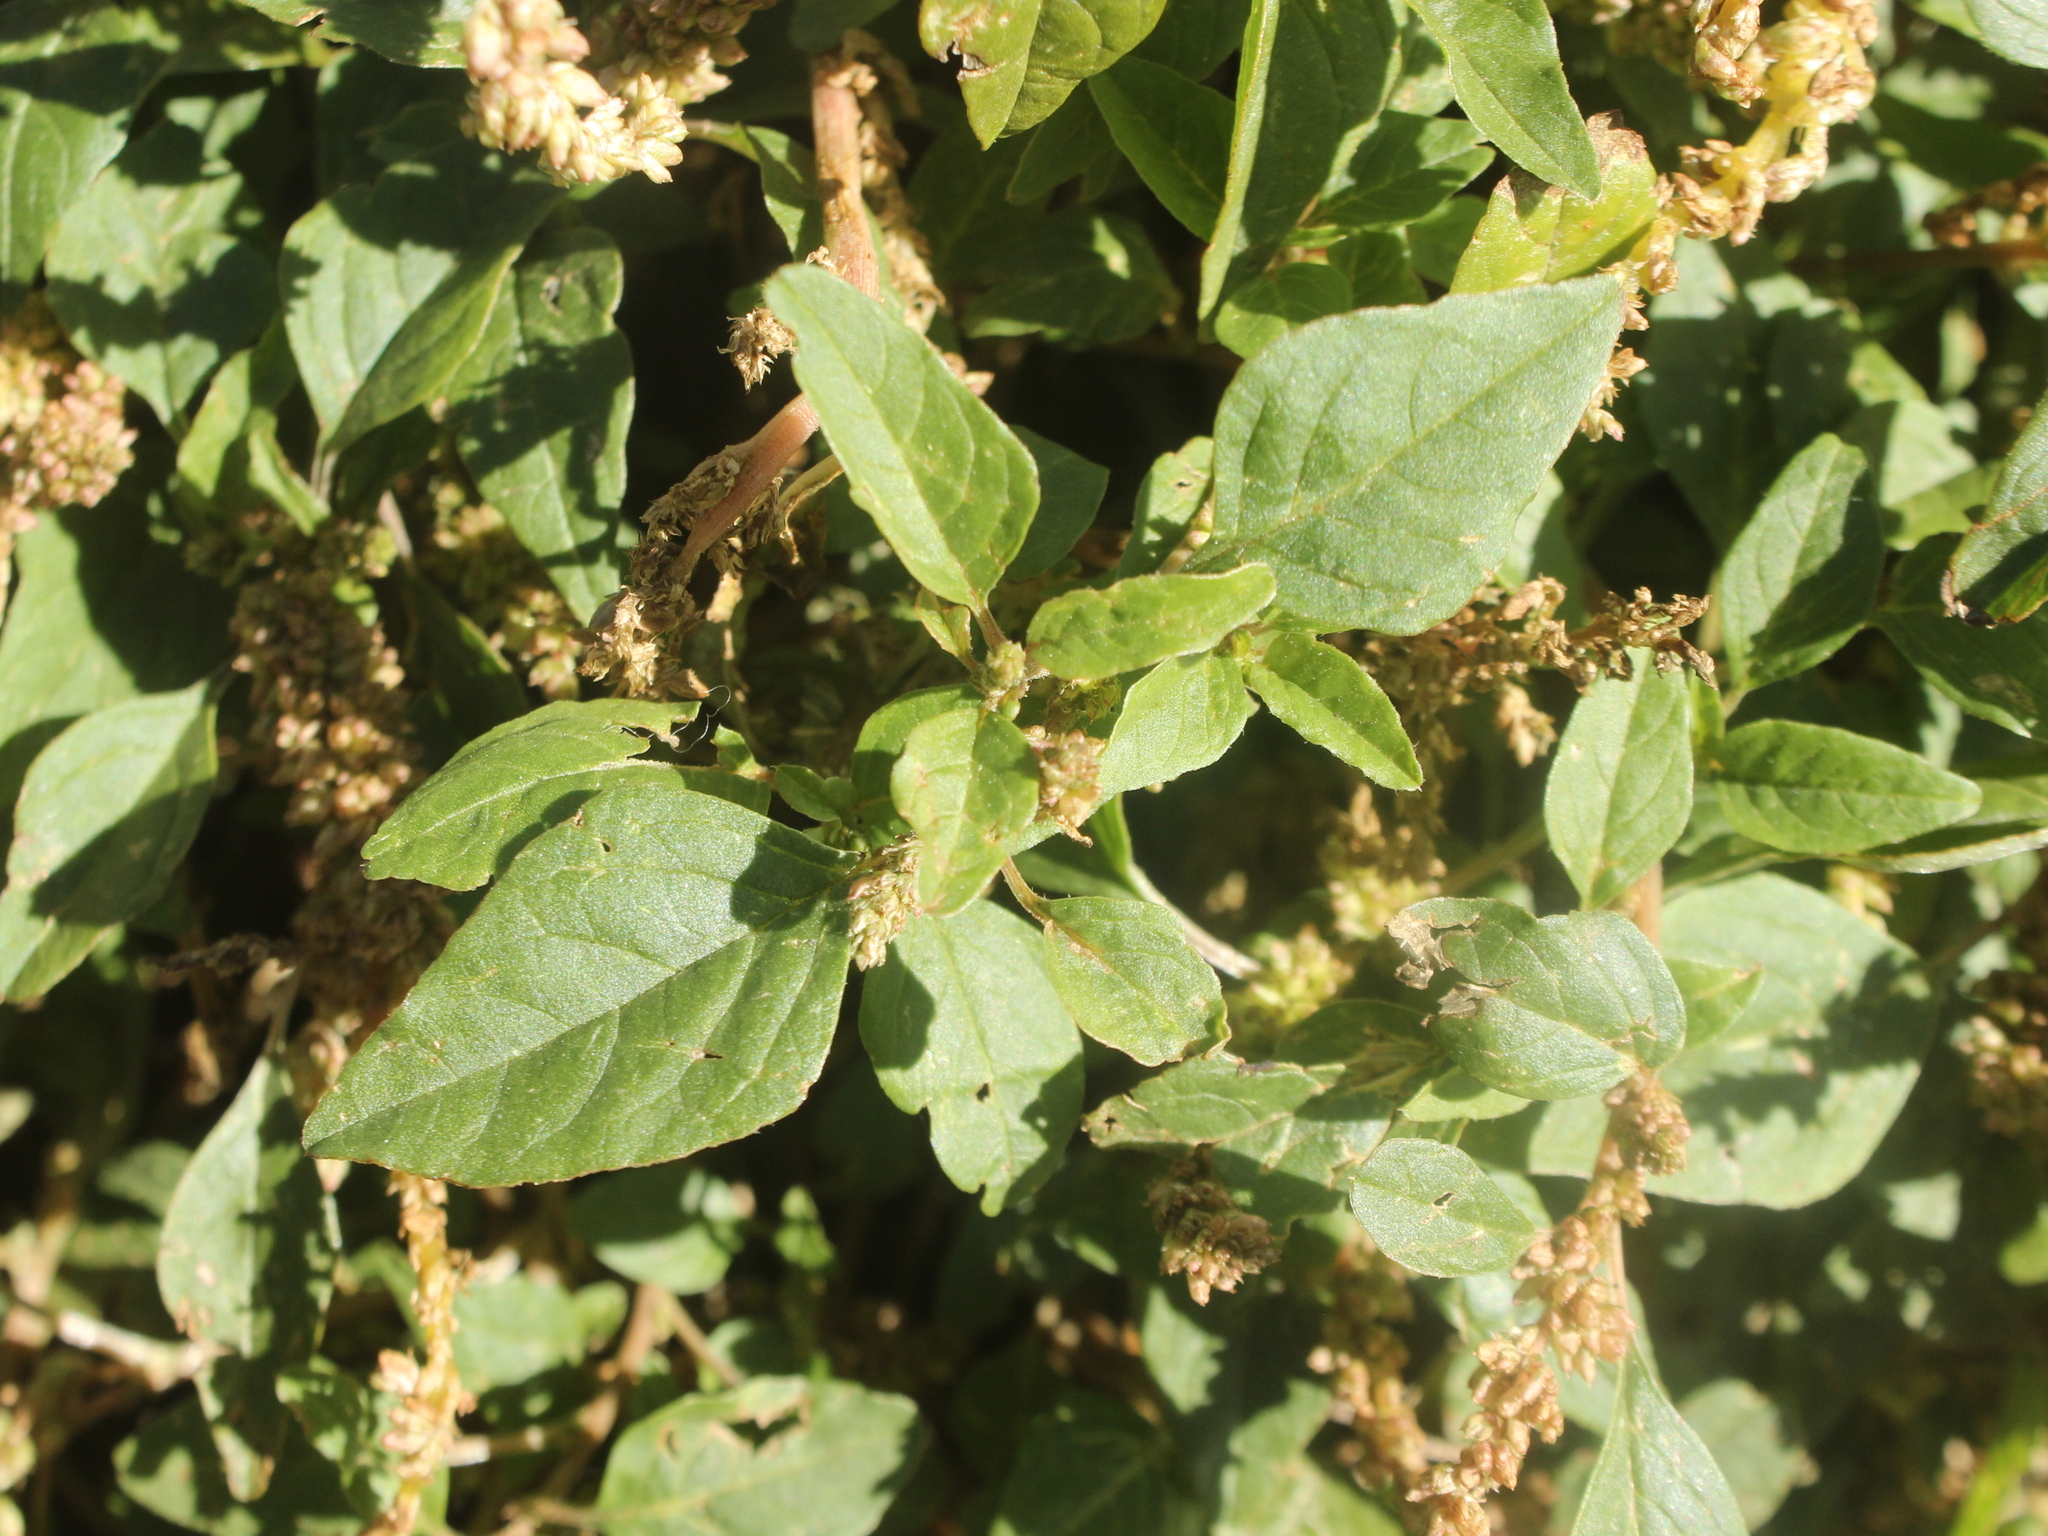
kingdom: Plantae
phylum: Tracheophyta
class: Magnoliopsida
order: Caryophyllales
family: Amaranthaceae
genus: Amaranthus
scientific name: Amaranthus deflexus
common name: Perennial pigweed
